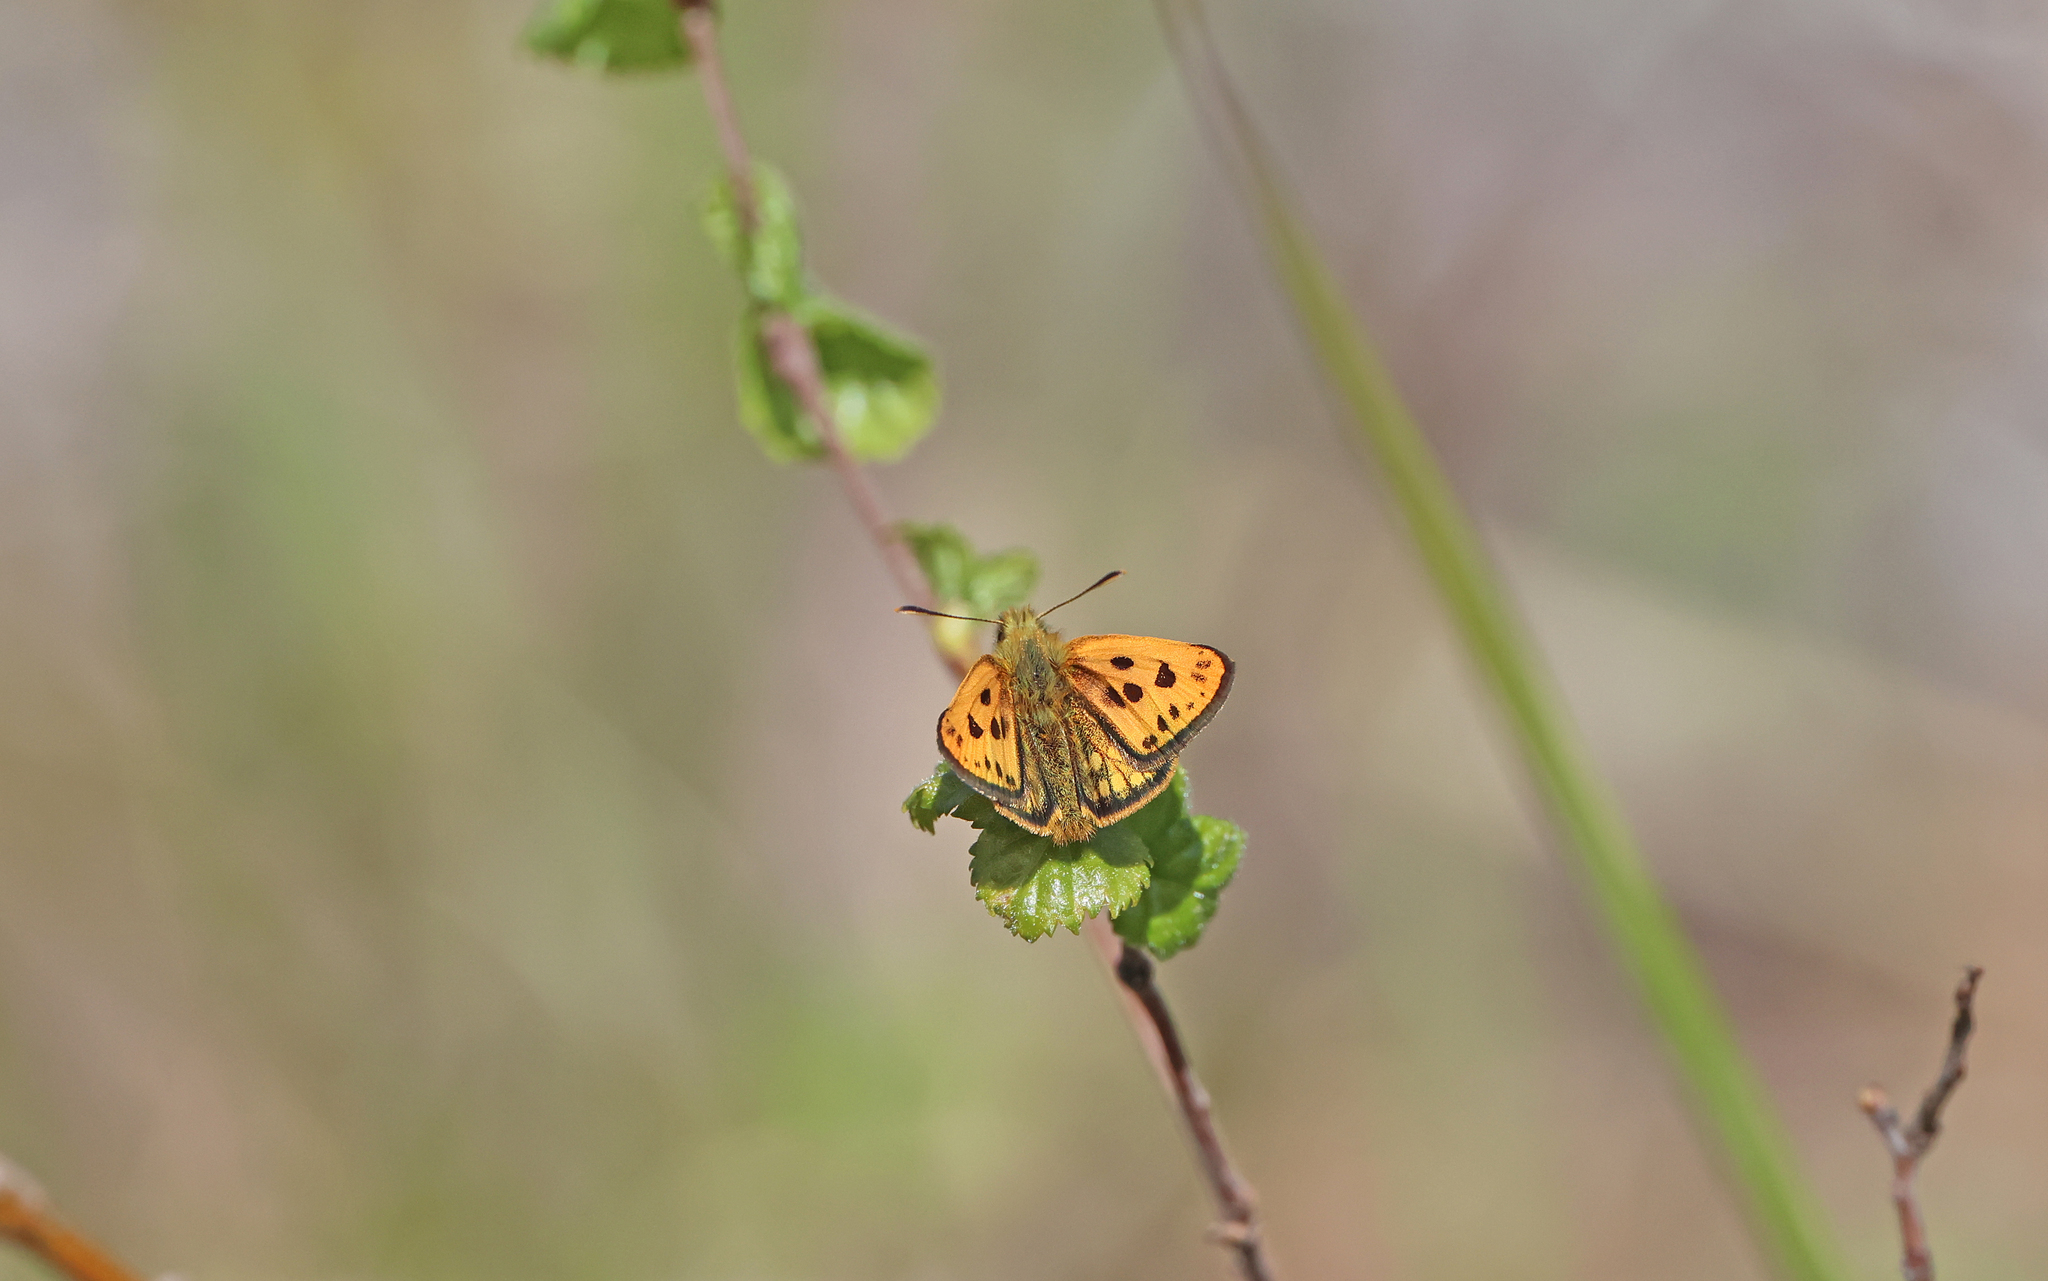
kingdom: Animalia
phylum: Arthropoda
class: Insecta
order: Lepidoptera
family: Hesperiidae
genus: Carterocephalus
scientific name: Carterocephalus silvicola
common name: Northern chequered skipper
